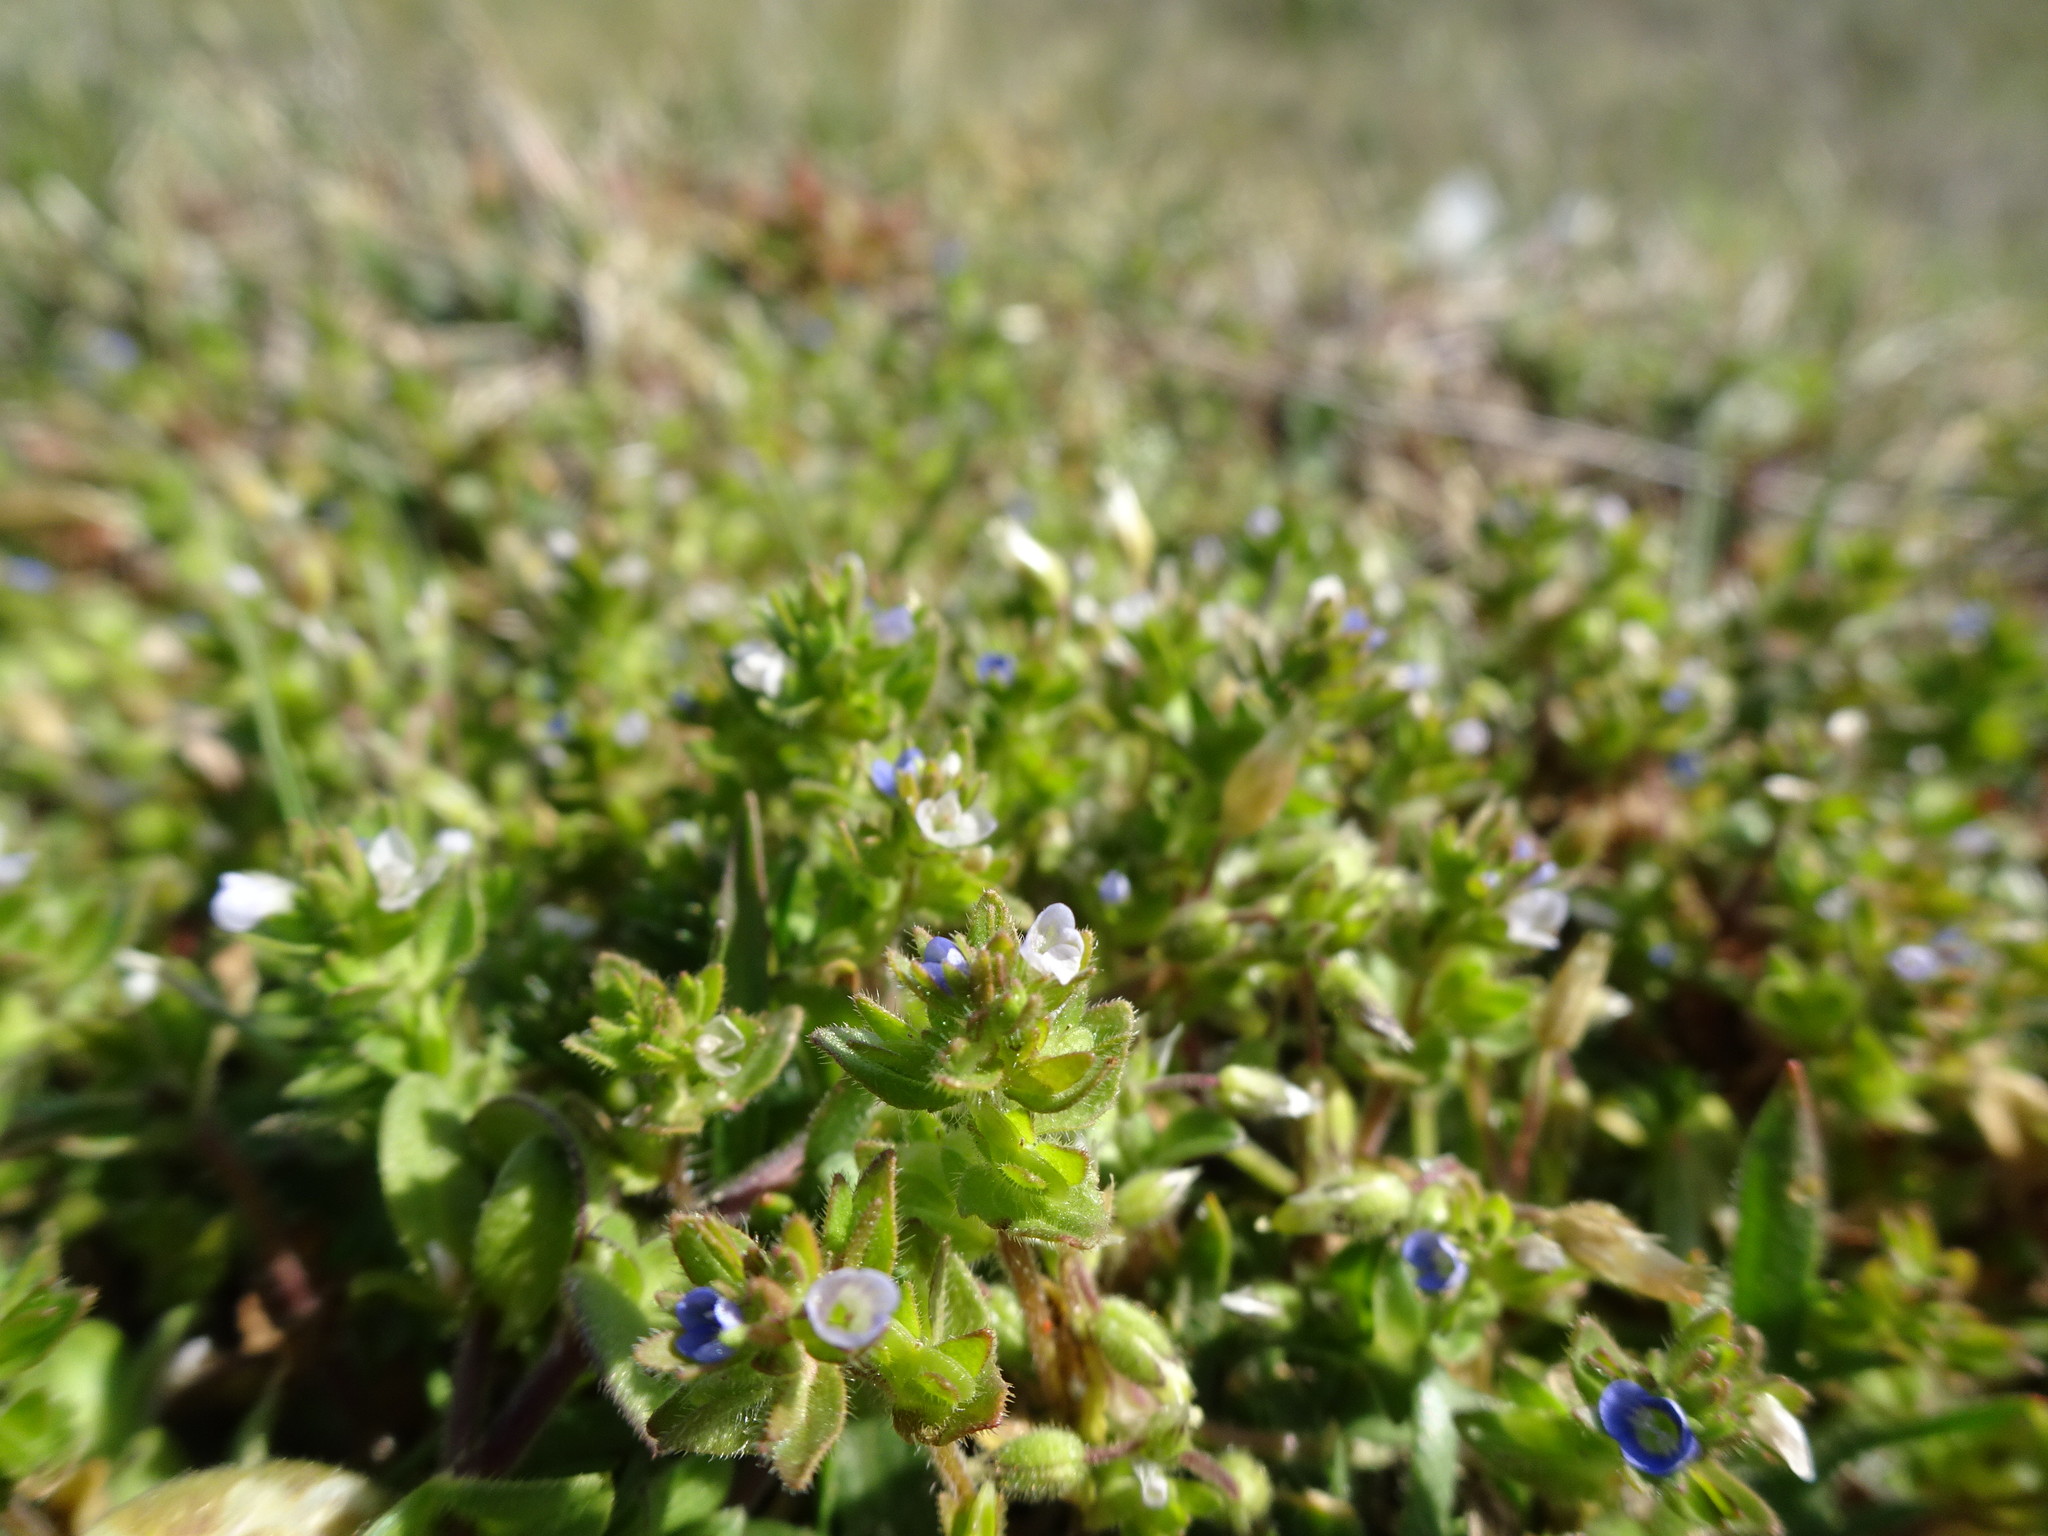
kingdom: Plantae
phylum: Tracheophyta
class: Magnoliopsida
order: Lamiales
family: Plantaginaceae
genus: Veronica
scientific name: Veronica arvensis
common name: Corn speedwell
